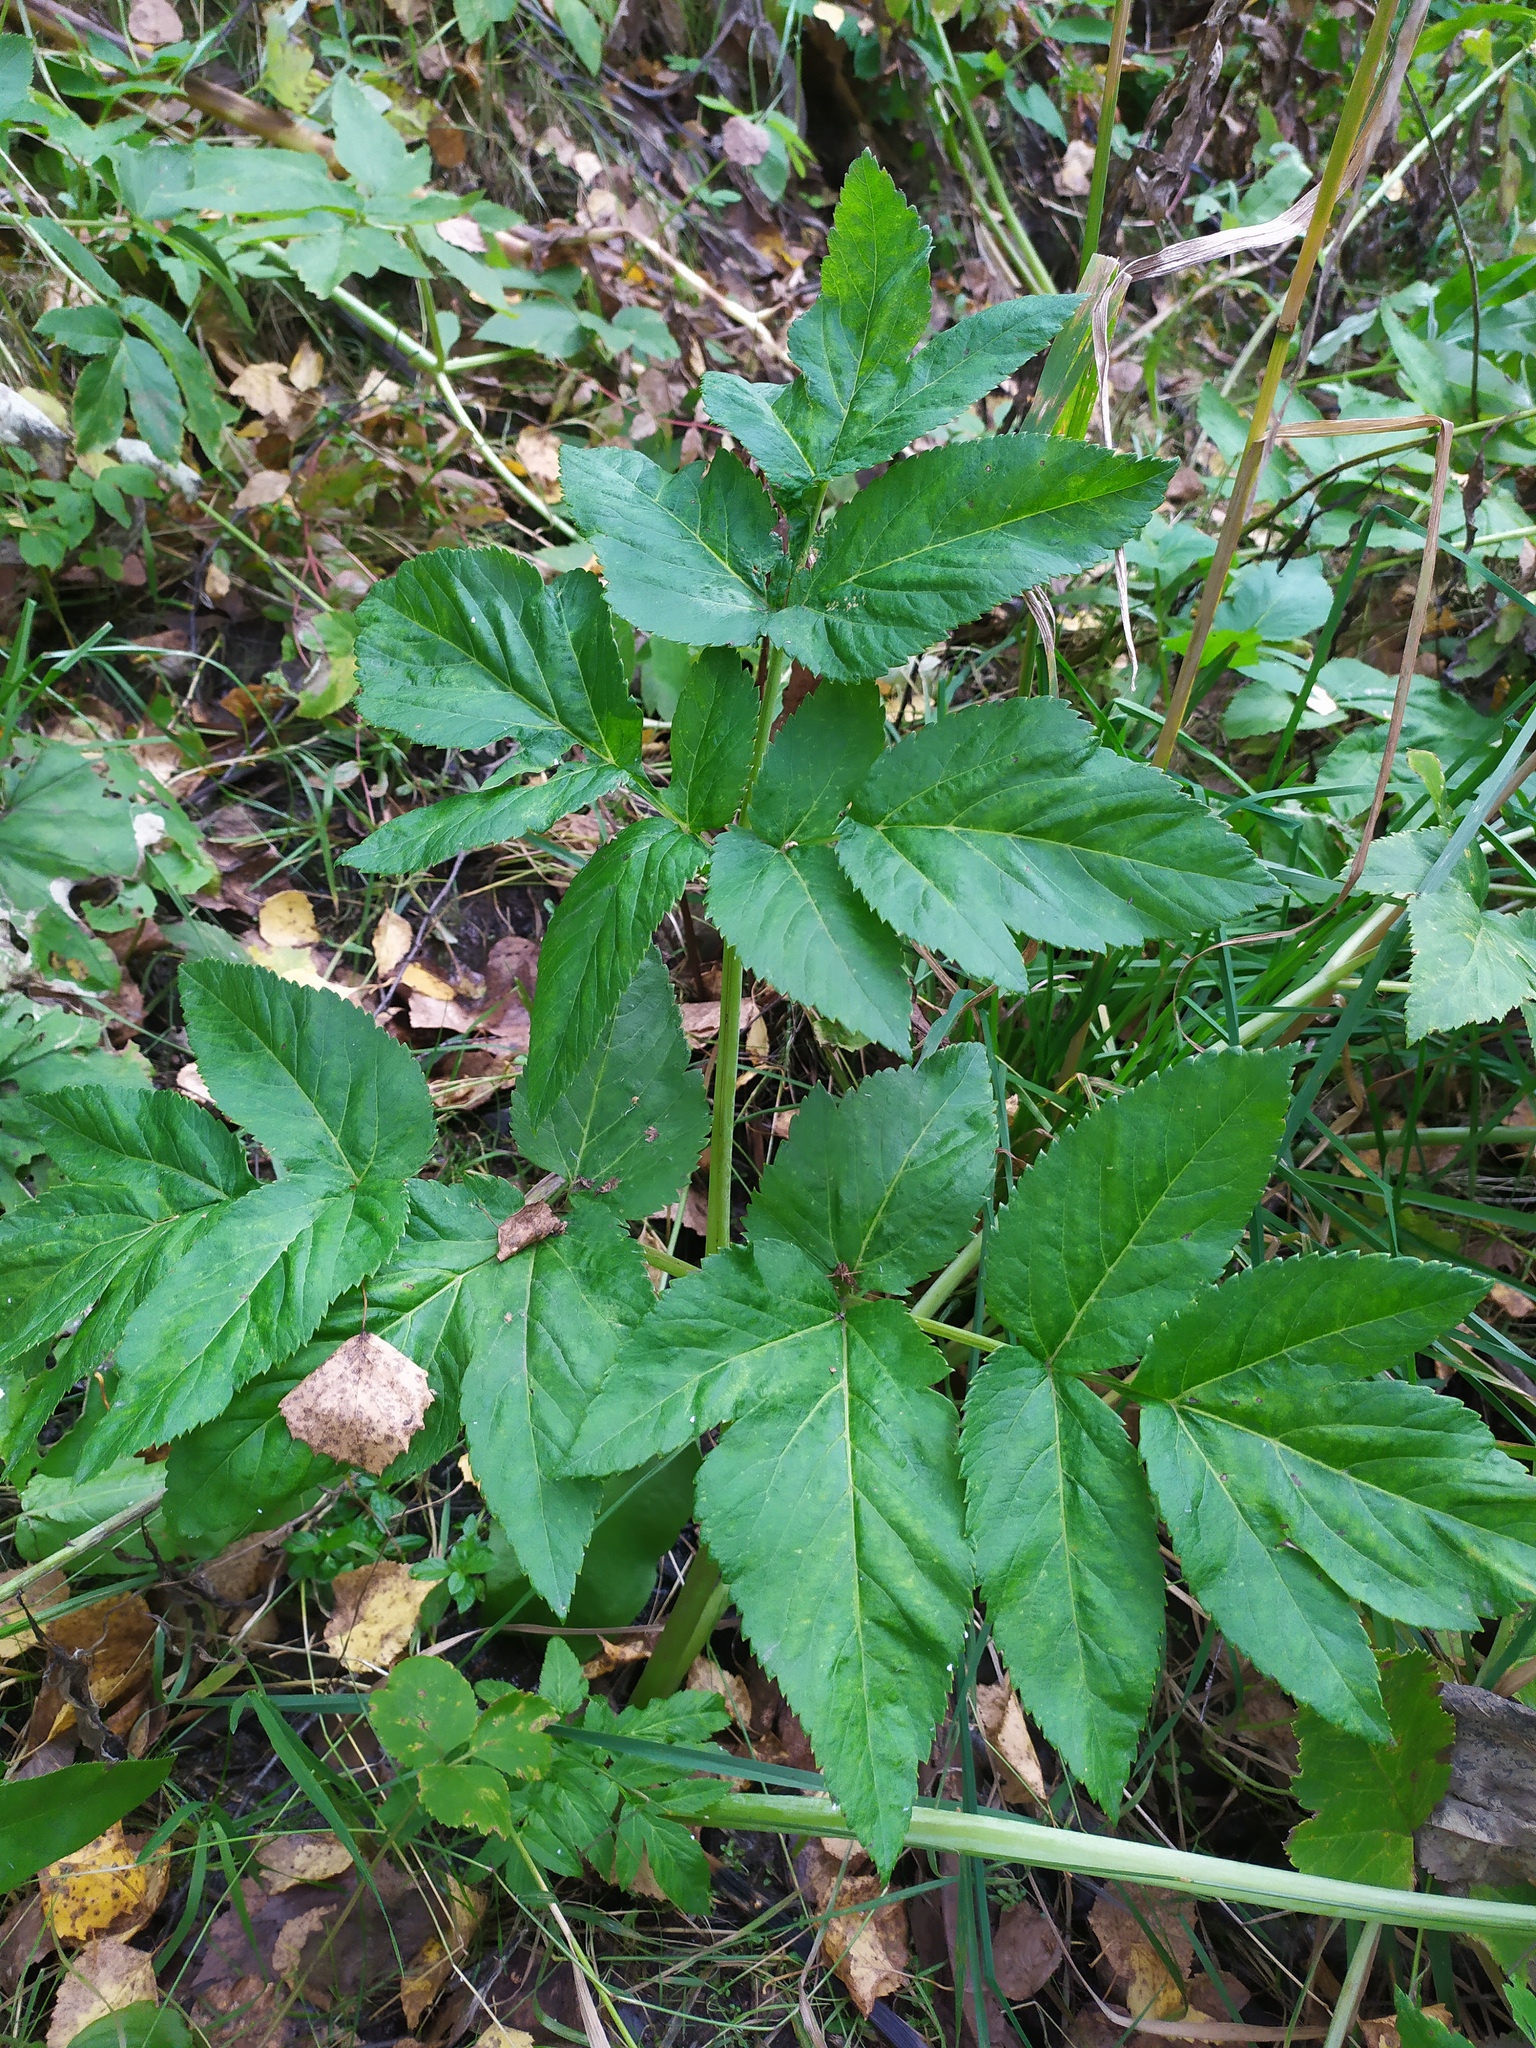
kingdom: Plantae
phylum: Tracheophyta
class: Magnoliopsida
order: Apiales
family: Apiaceae
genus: Angelica
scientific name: Angelica sylvestris
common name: Wild angelica
